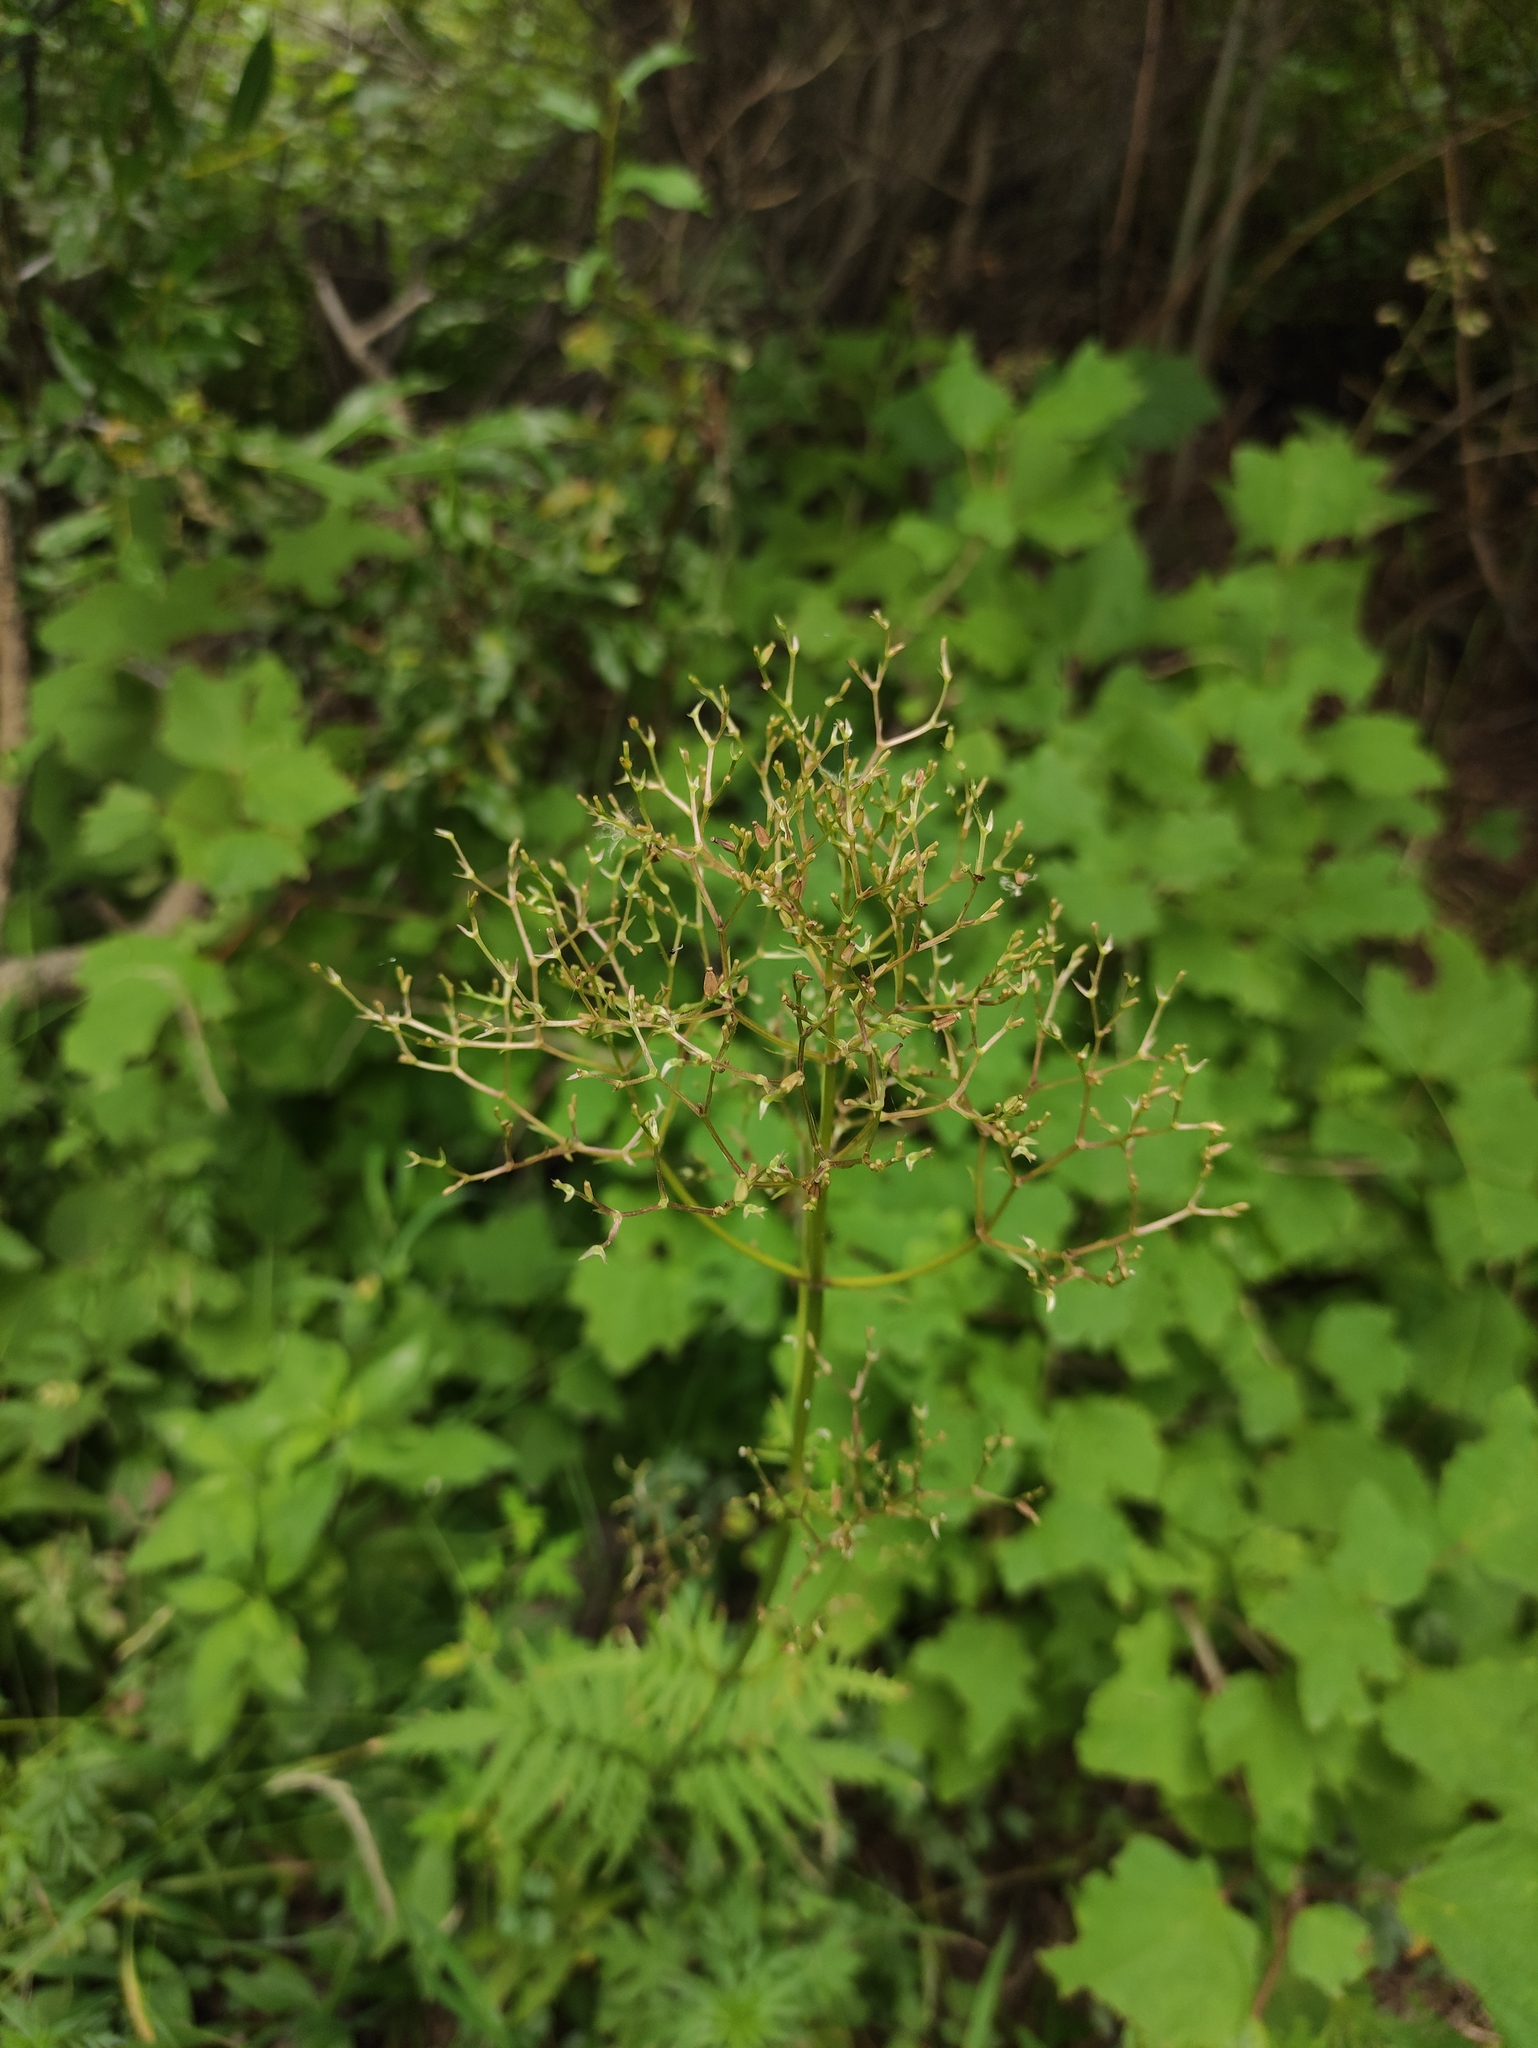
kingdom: Plantae
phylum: Tracheophyta
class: Magnoliopsida
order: Dipsacales
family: Caprifoliaceae
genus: Valeriana
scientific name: Valeriana transjenisensis
